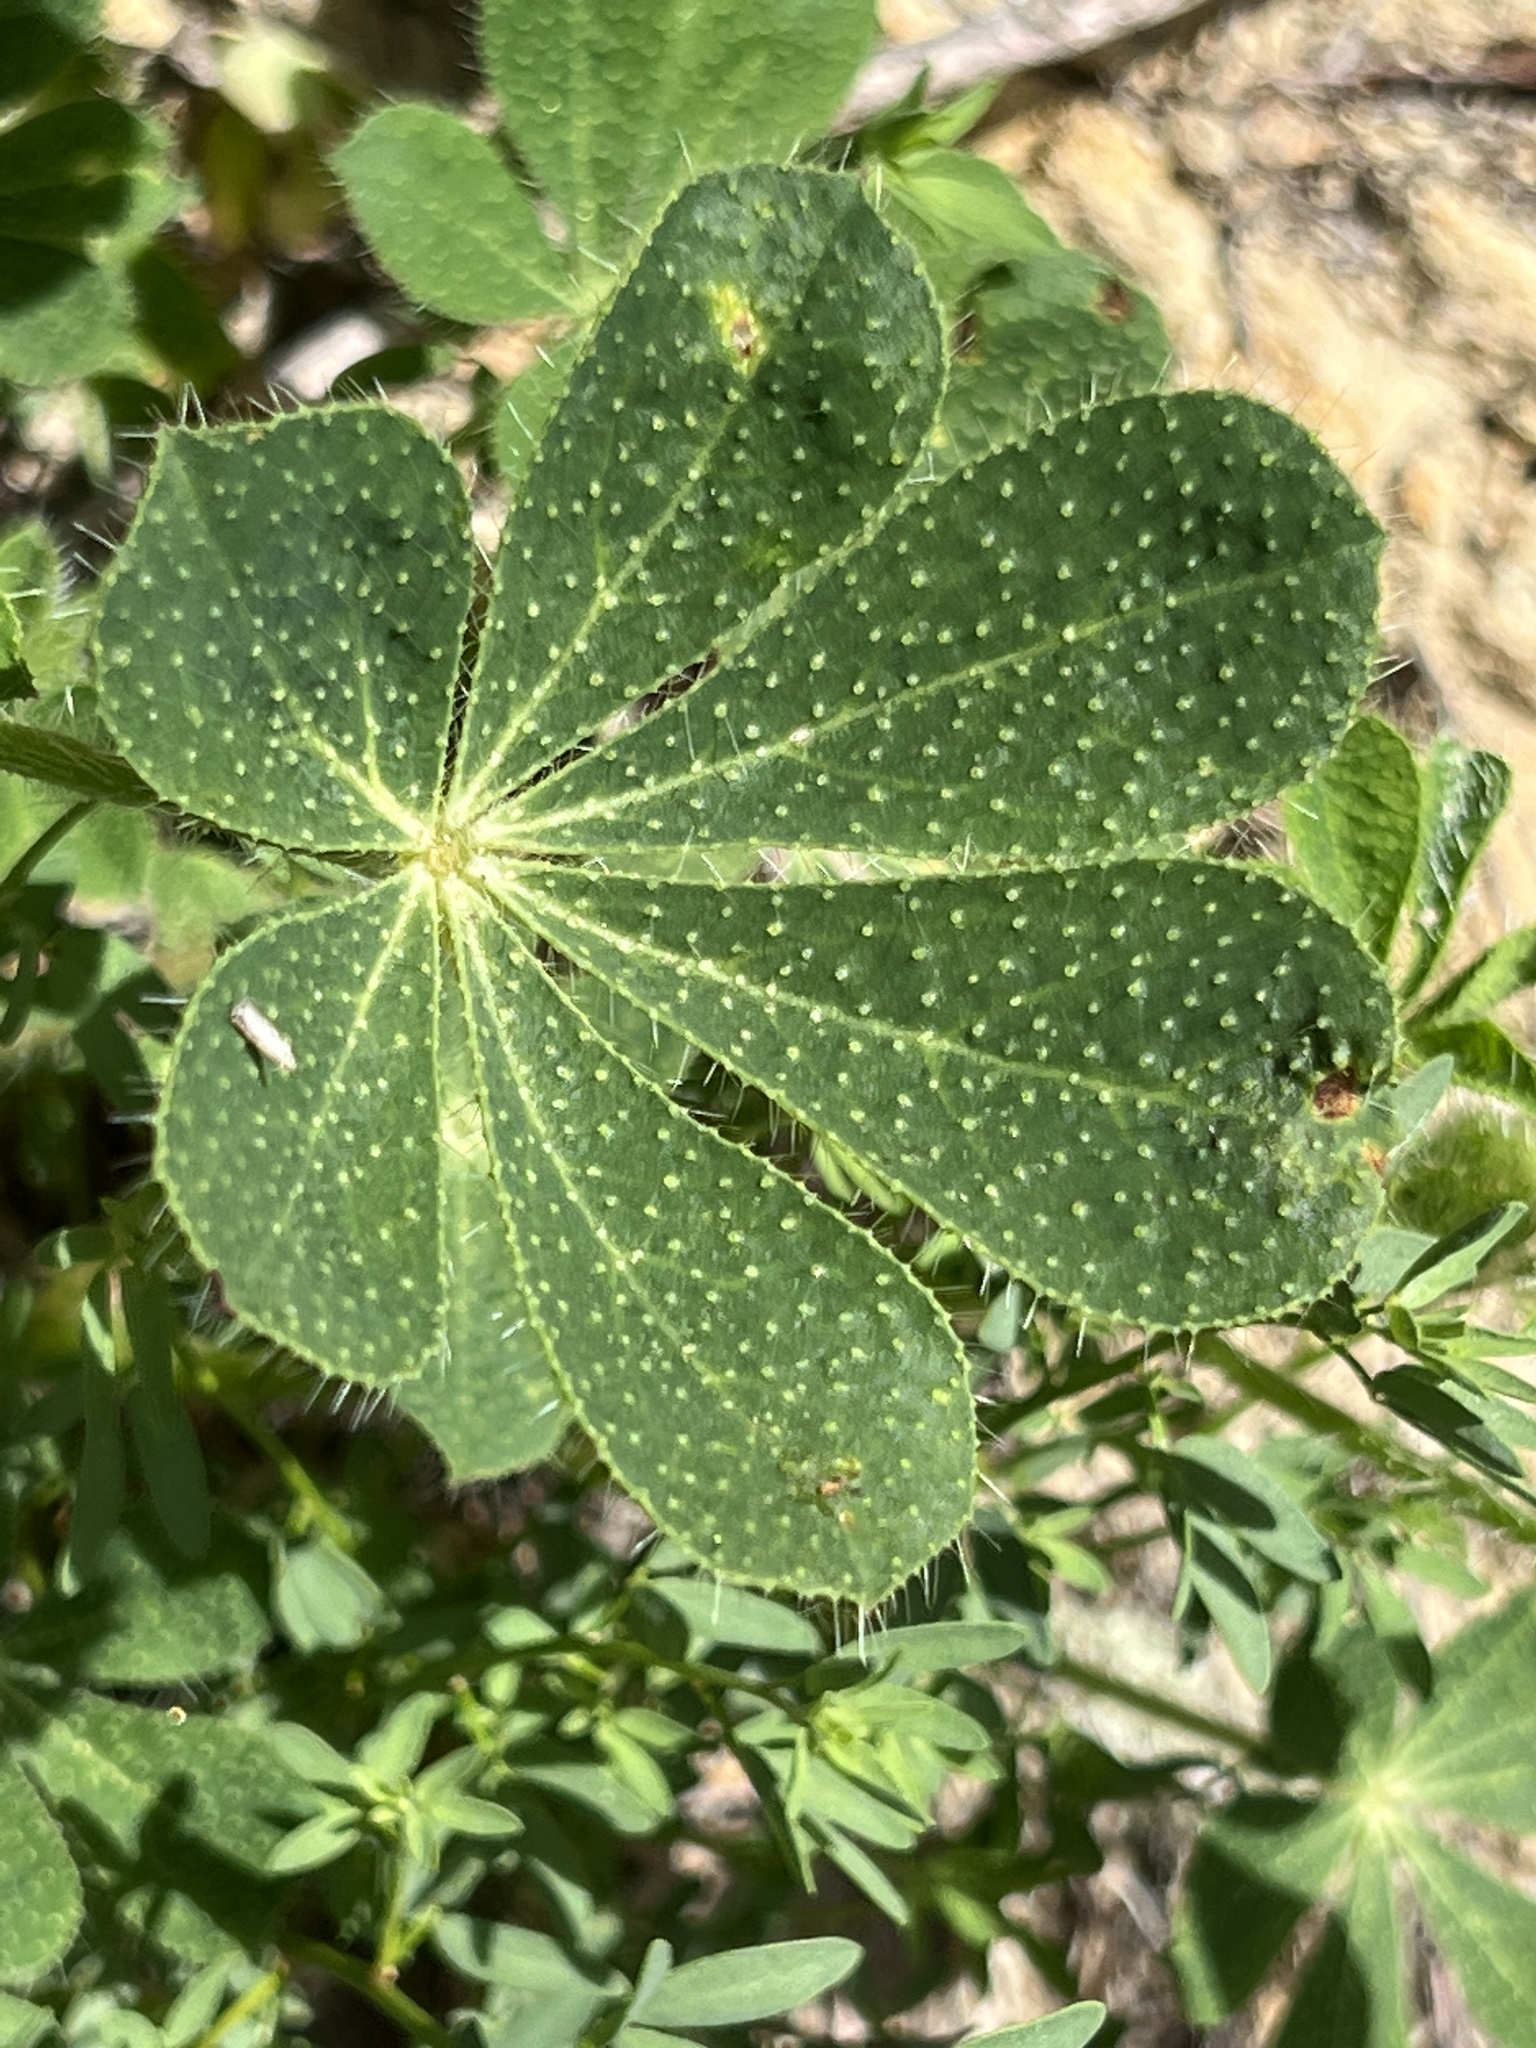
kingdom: Plantae
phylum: Tracheophyta
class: Magnoliopsida
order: Fabales
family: Fabaceae
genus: Lupinus
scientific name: Lupinus hirsutissimus
